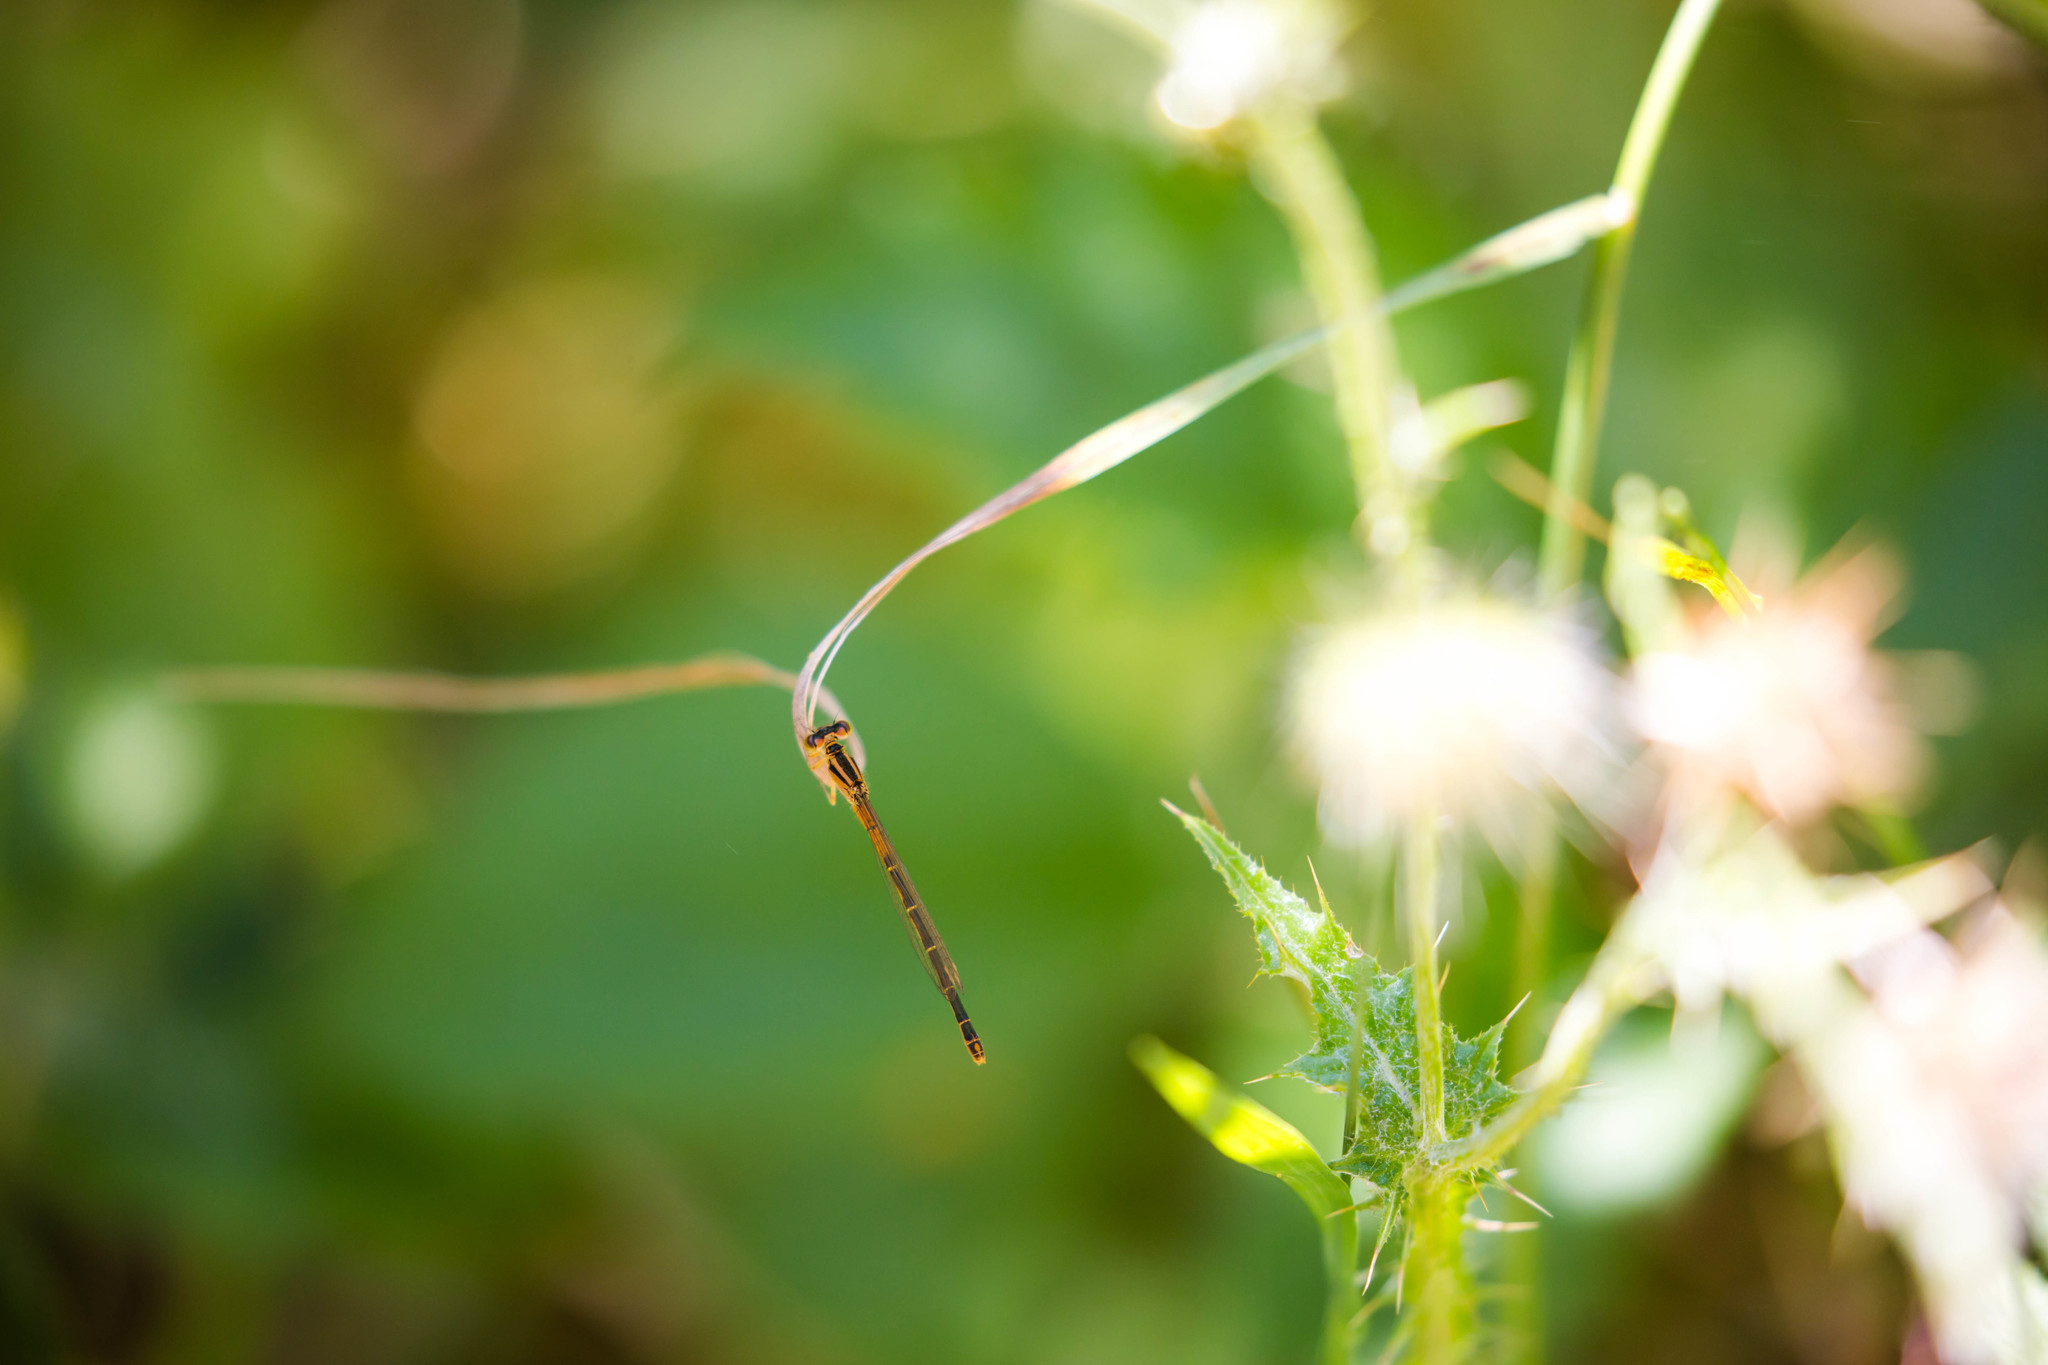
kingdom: Animalia
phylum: Arthropoda
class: Insecta
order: Odonata
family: Coenagrionidae
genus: Ischnura
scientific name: Ischnura perparva
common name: Western forktail
